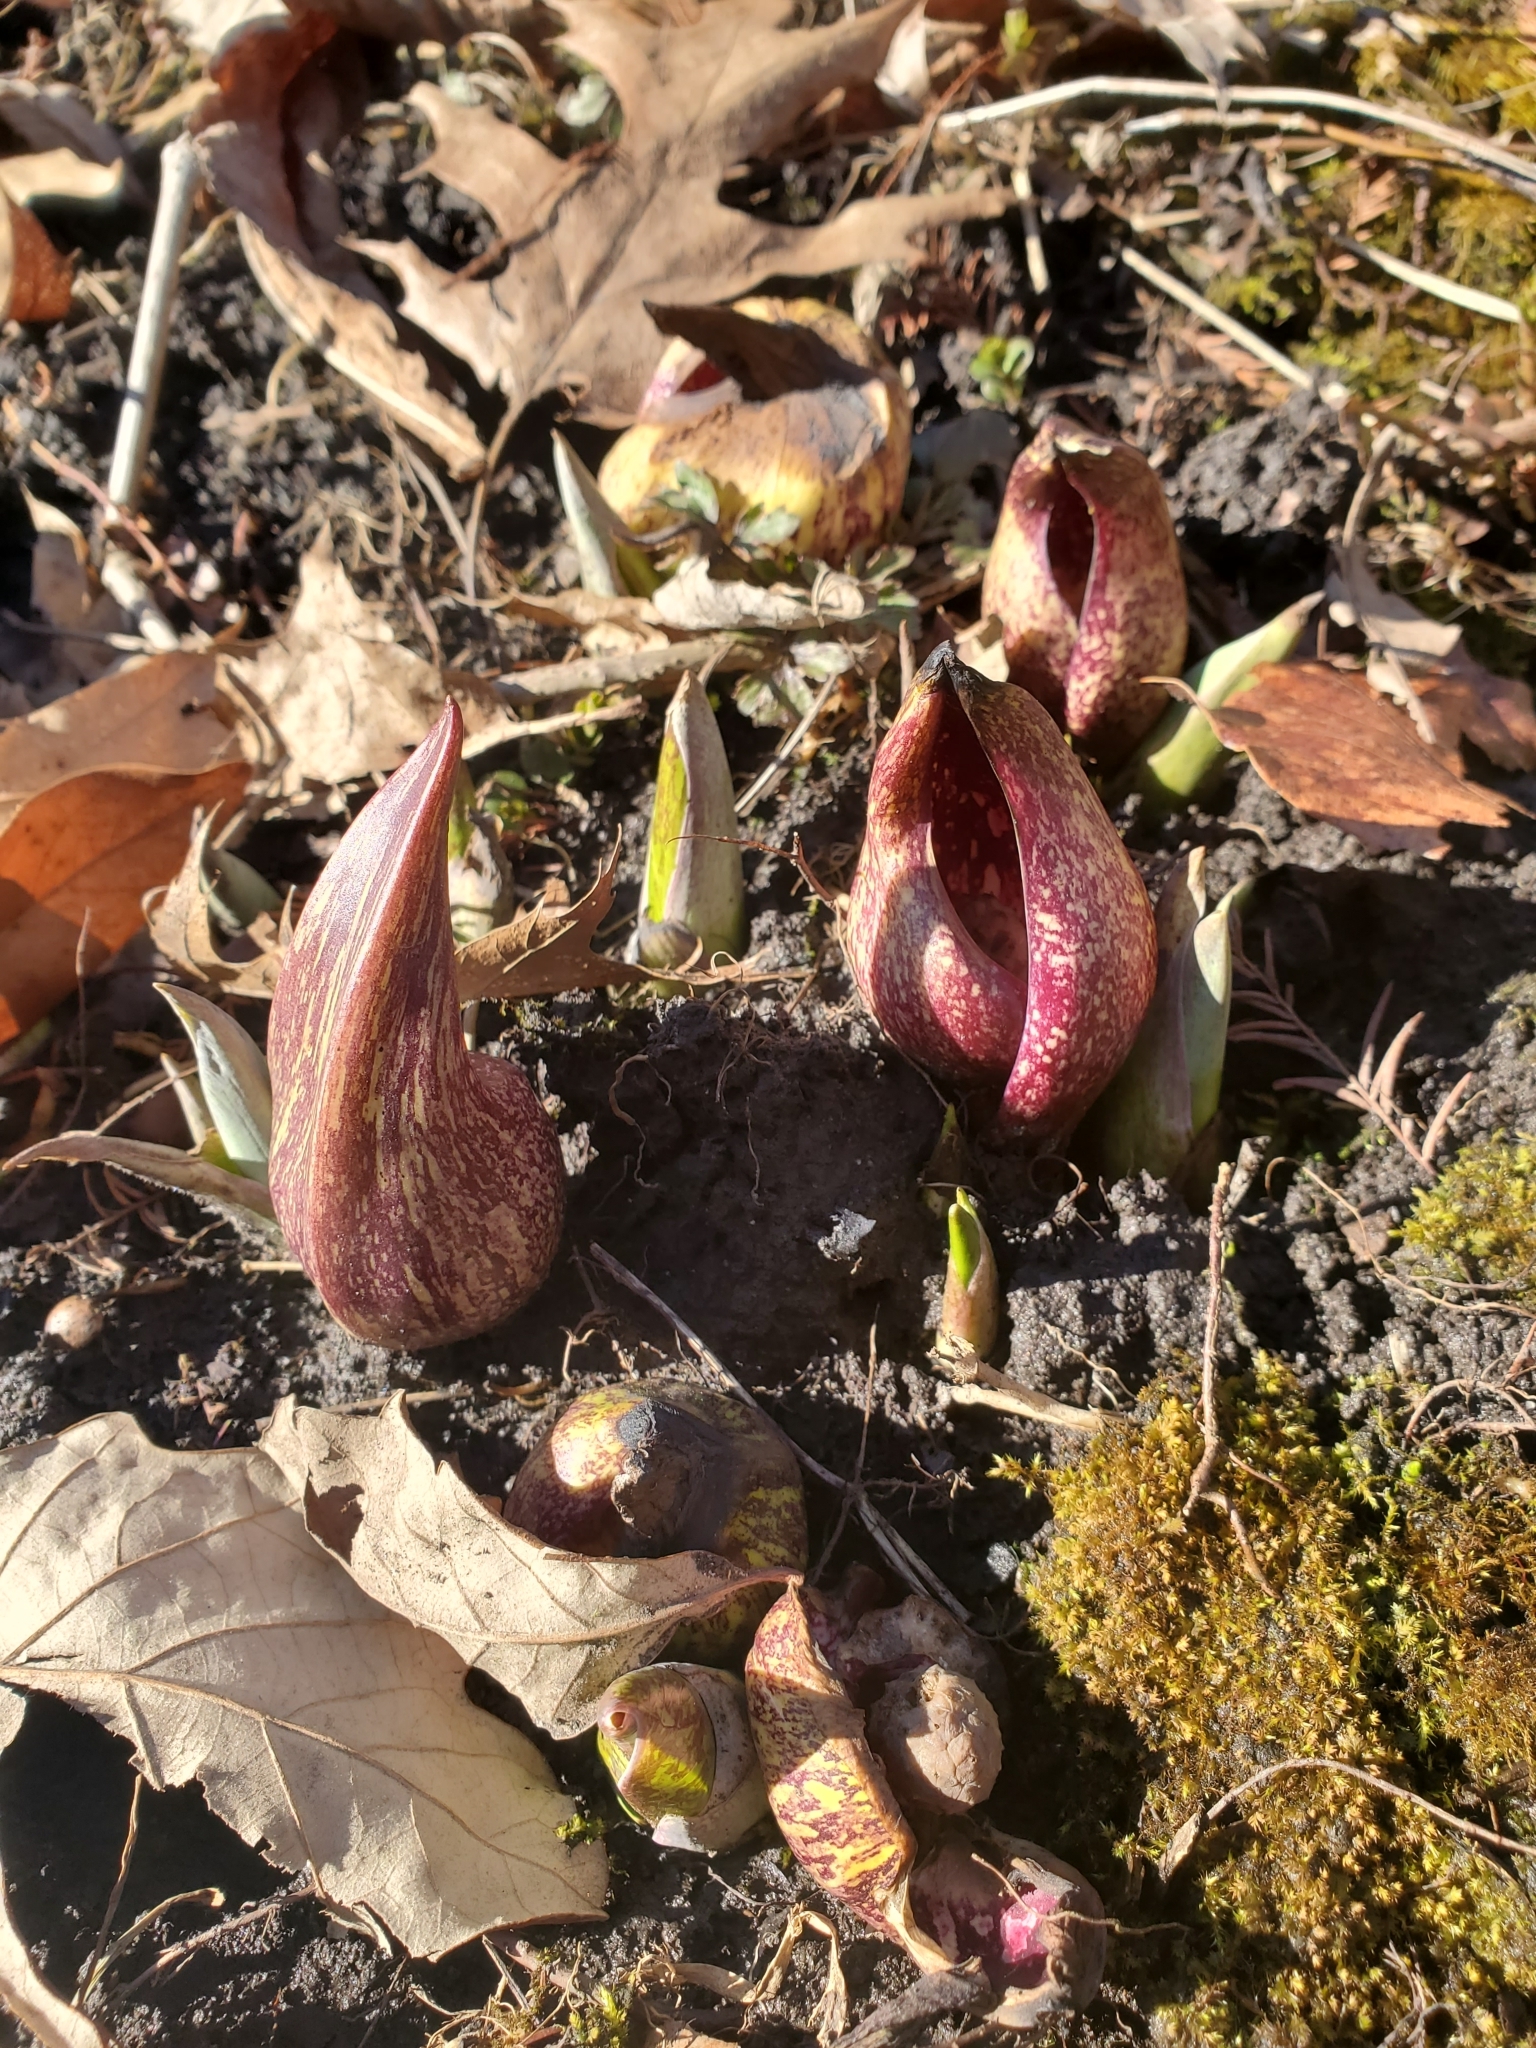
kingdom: Plantae
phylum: Tracheophyta
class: Liliopsida
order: Alismatales
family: Araceae
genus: Symplocarpus
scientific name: Symplocarpus foetidus
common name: Eastern skunk cabbage
